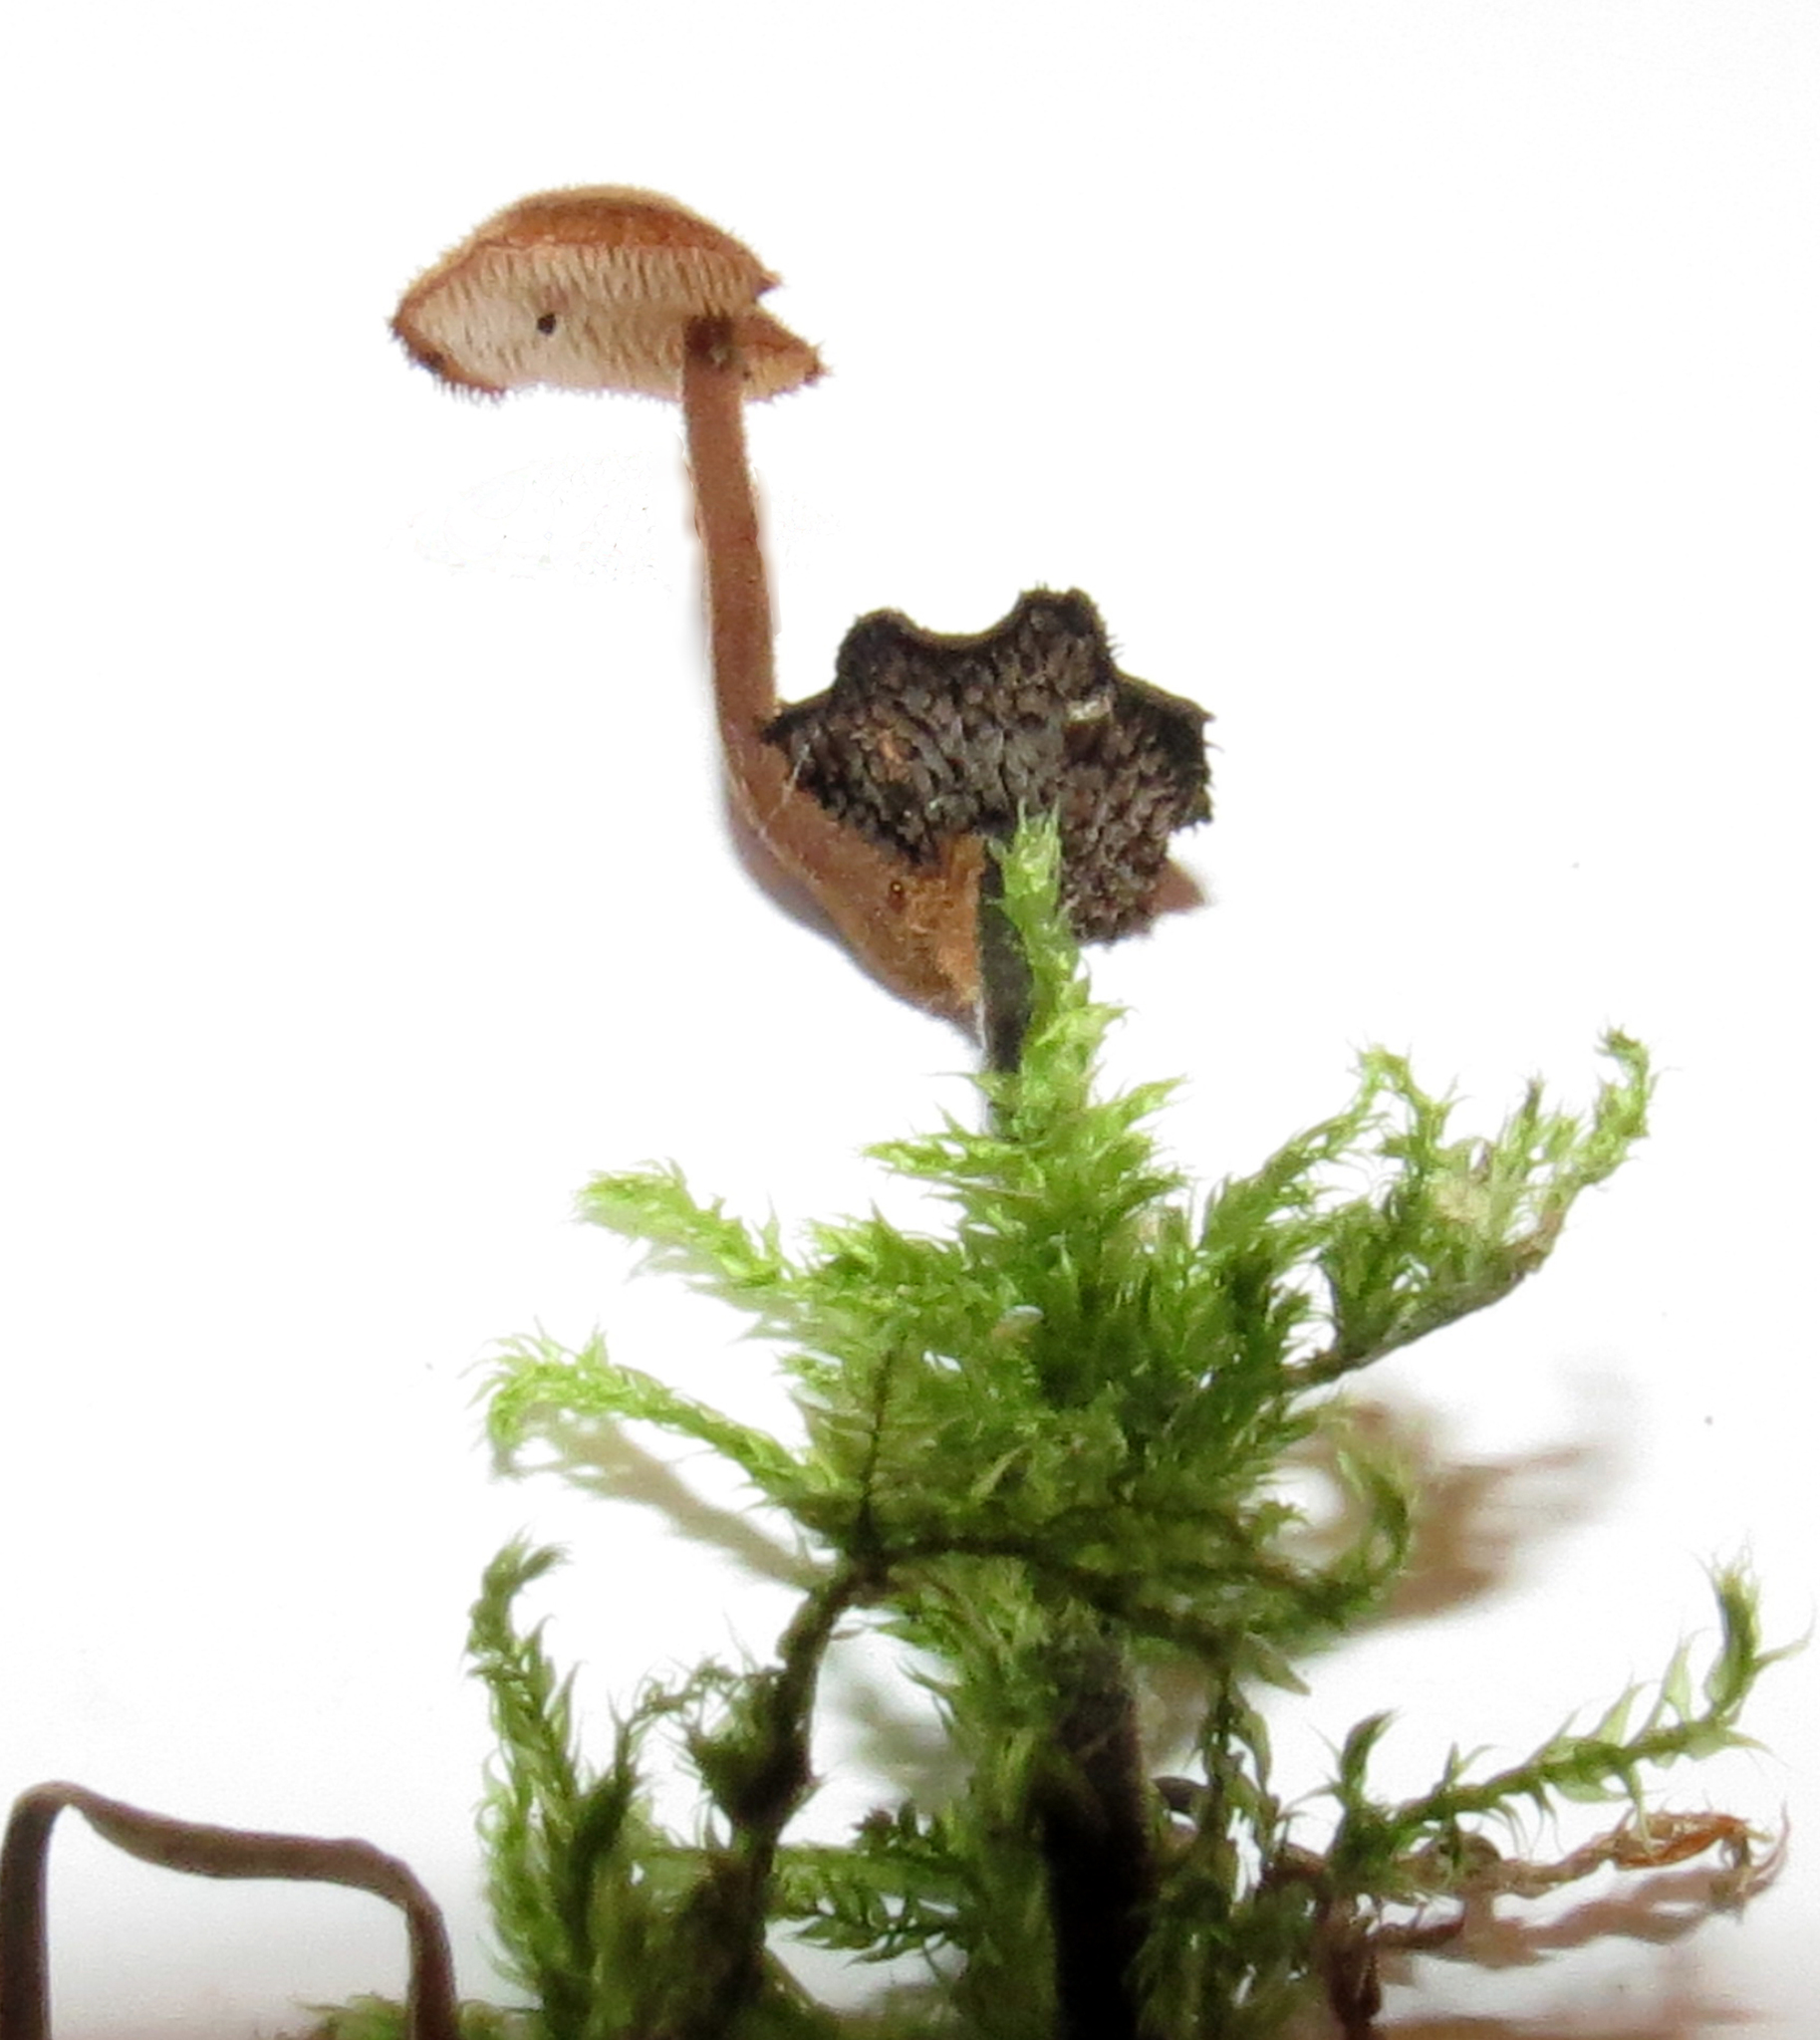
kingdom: Fungi
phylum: Basidiomycota
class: Agaricomycetes
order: Russulales
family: Auriscalpiaceae
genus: Auriscalpium
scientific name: Auriscalpium vulgare
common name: Earpick fungus
